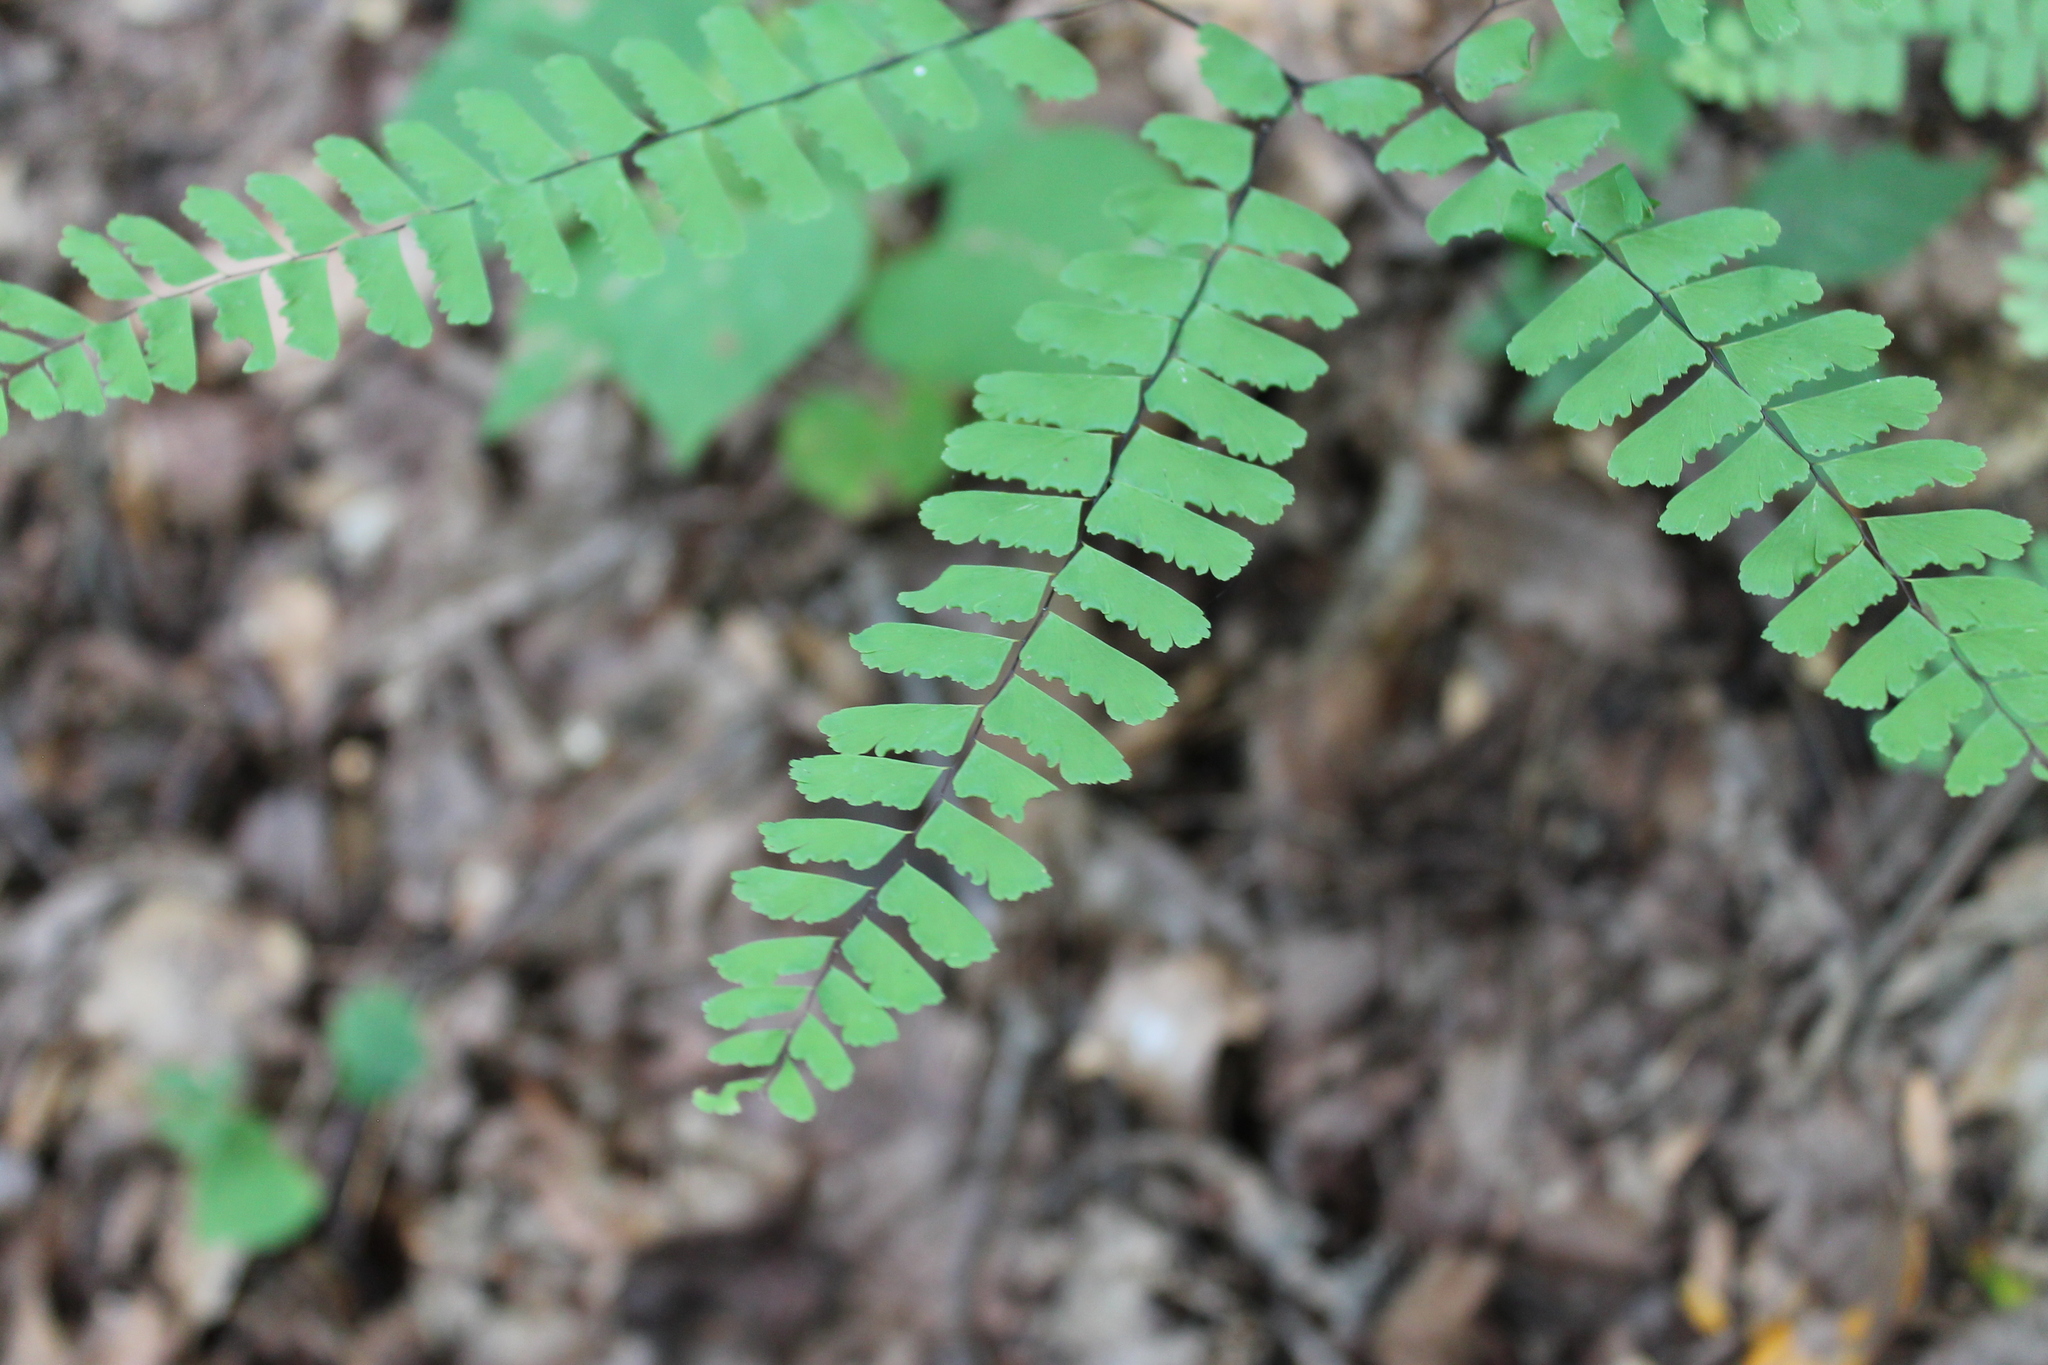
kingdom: Plantae
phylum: Tracheophyta
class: Polypodiopsida
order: Polypodiales
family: Pteridaceae
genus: Adiantum
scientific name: Adiantum pedatum
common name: Five-finger fern
